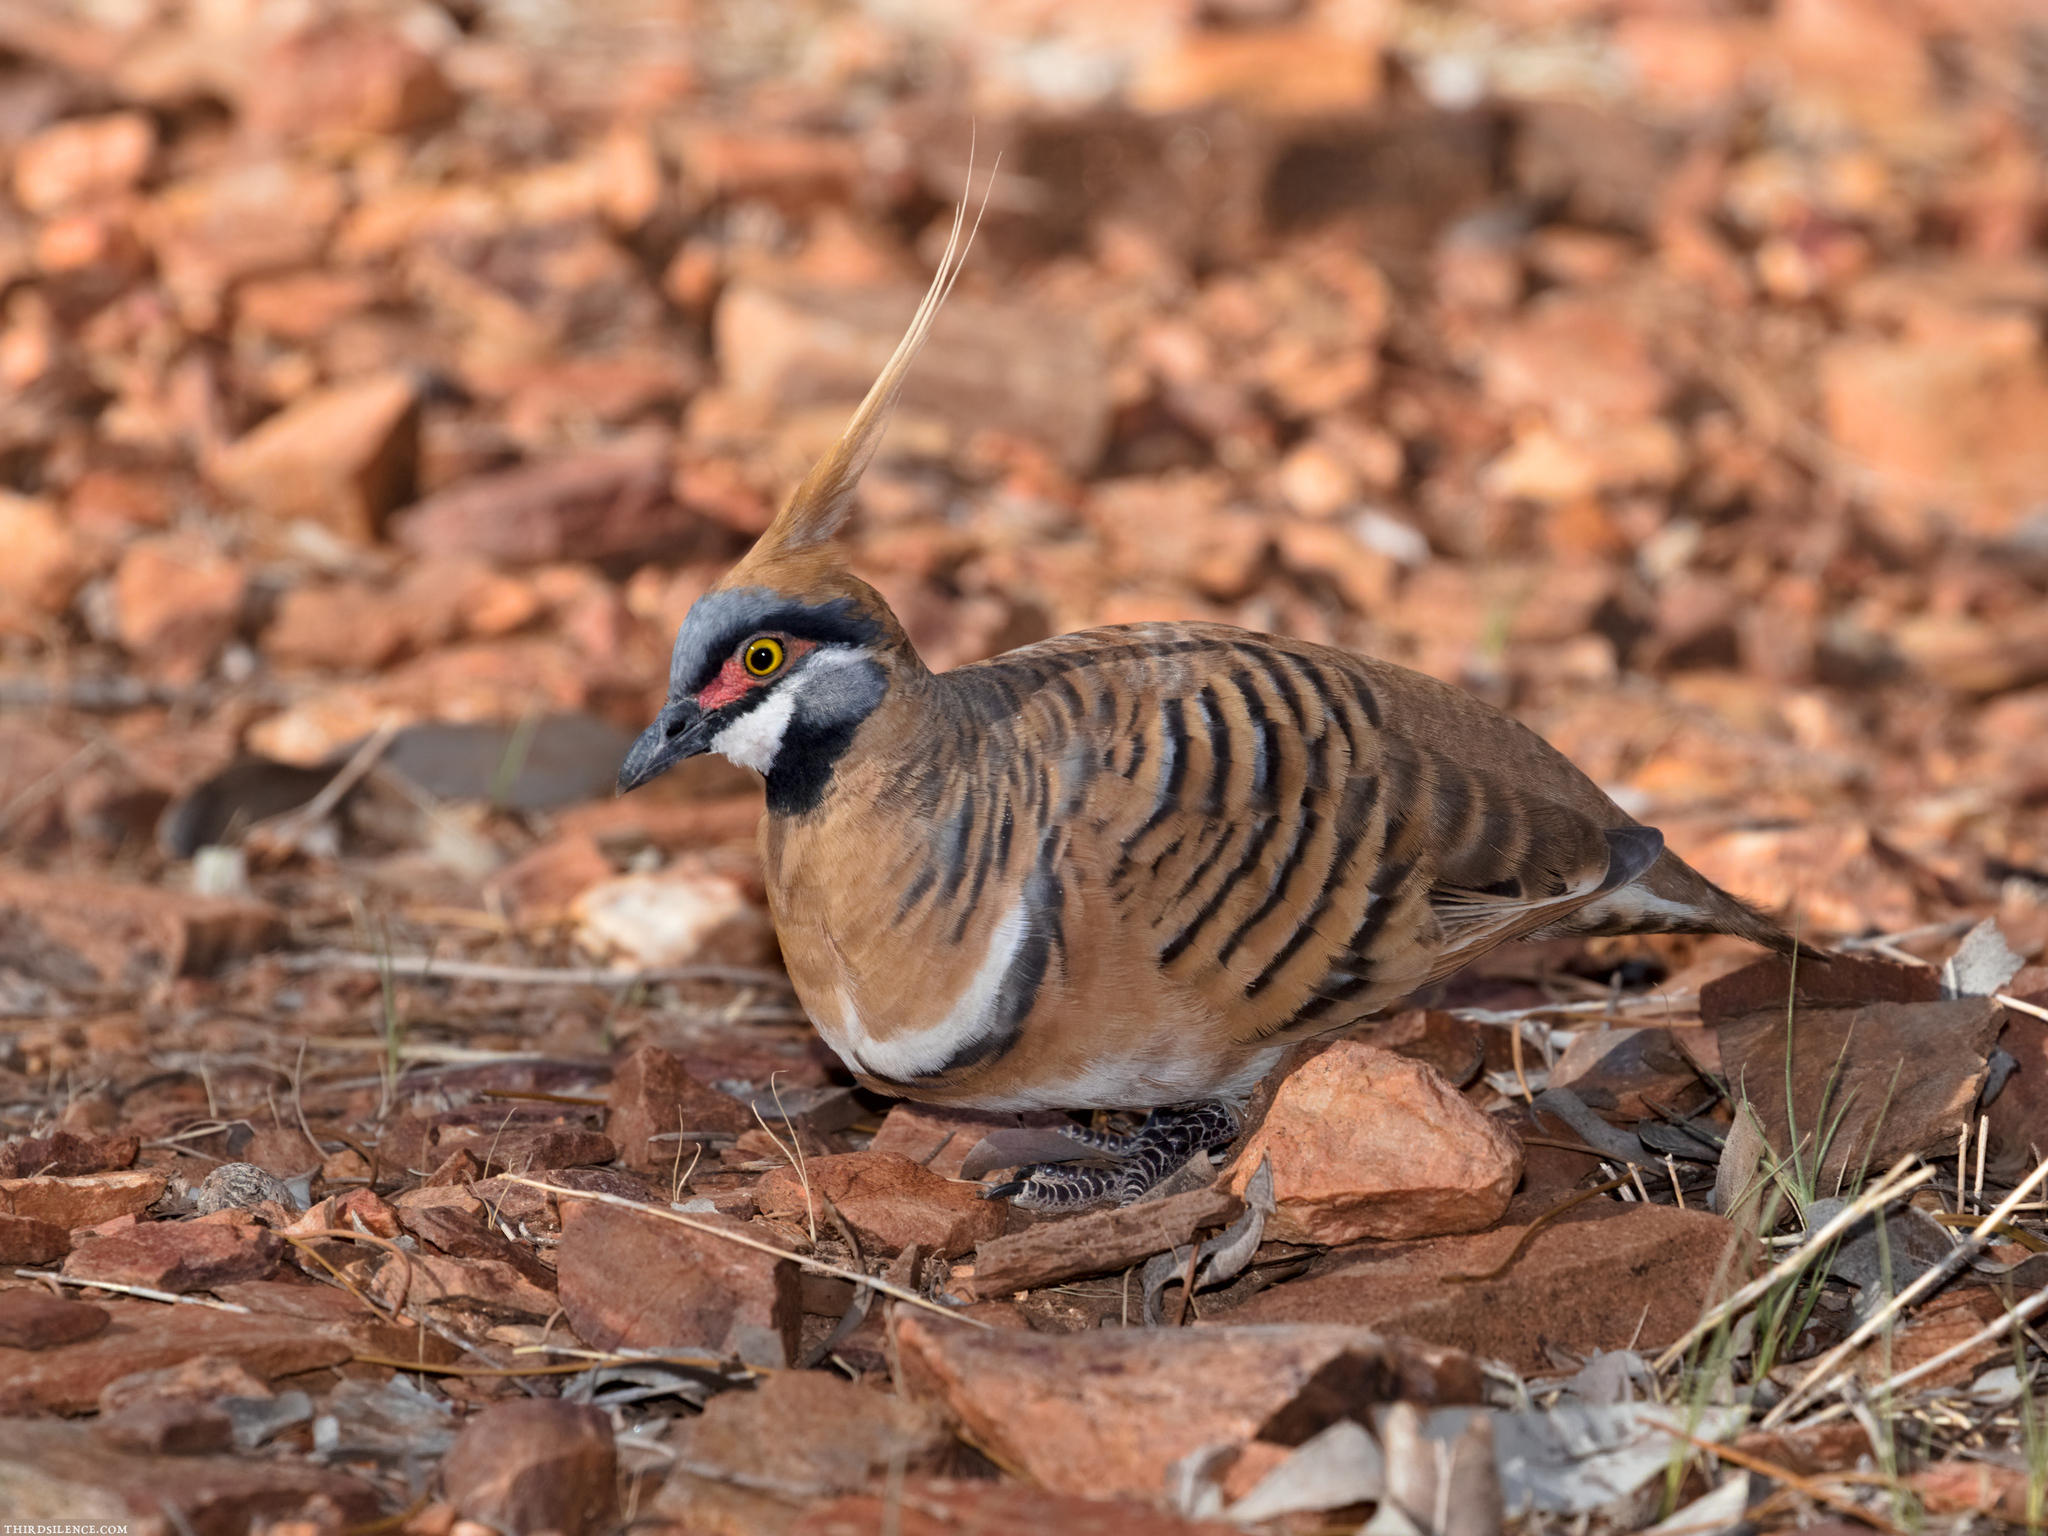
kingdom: Animalia
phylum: Chordata
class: Aves
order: Columbiformes
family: Columbidae
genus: Geophaps
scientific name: Geophaps plumifera
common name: Spinifex pigeon
